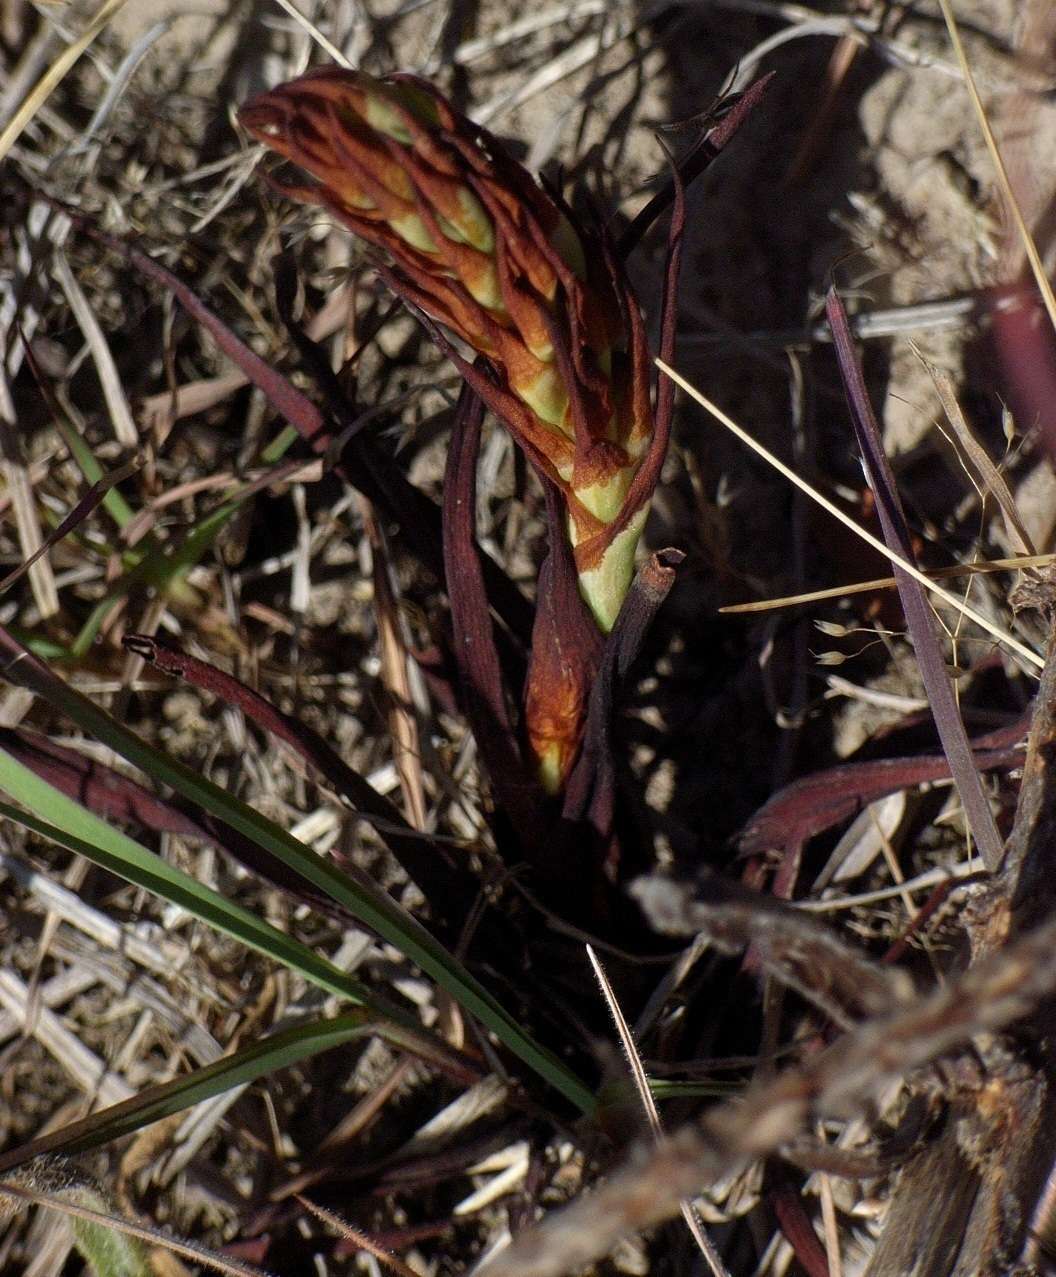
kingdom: Plantae
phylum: Tracheophyta
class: Liliopsida
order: Asparagales
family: Orchidaceae
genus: Disa
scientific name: Disa bracteata
